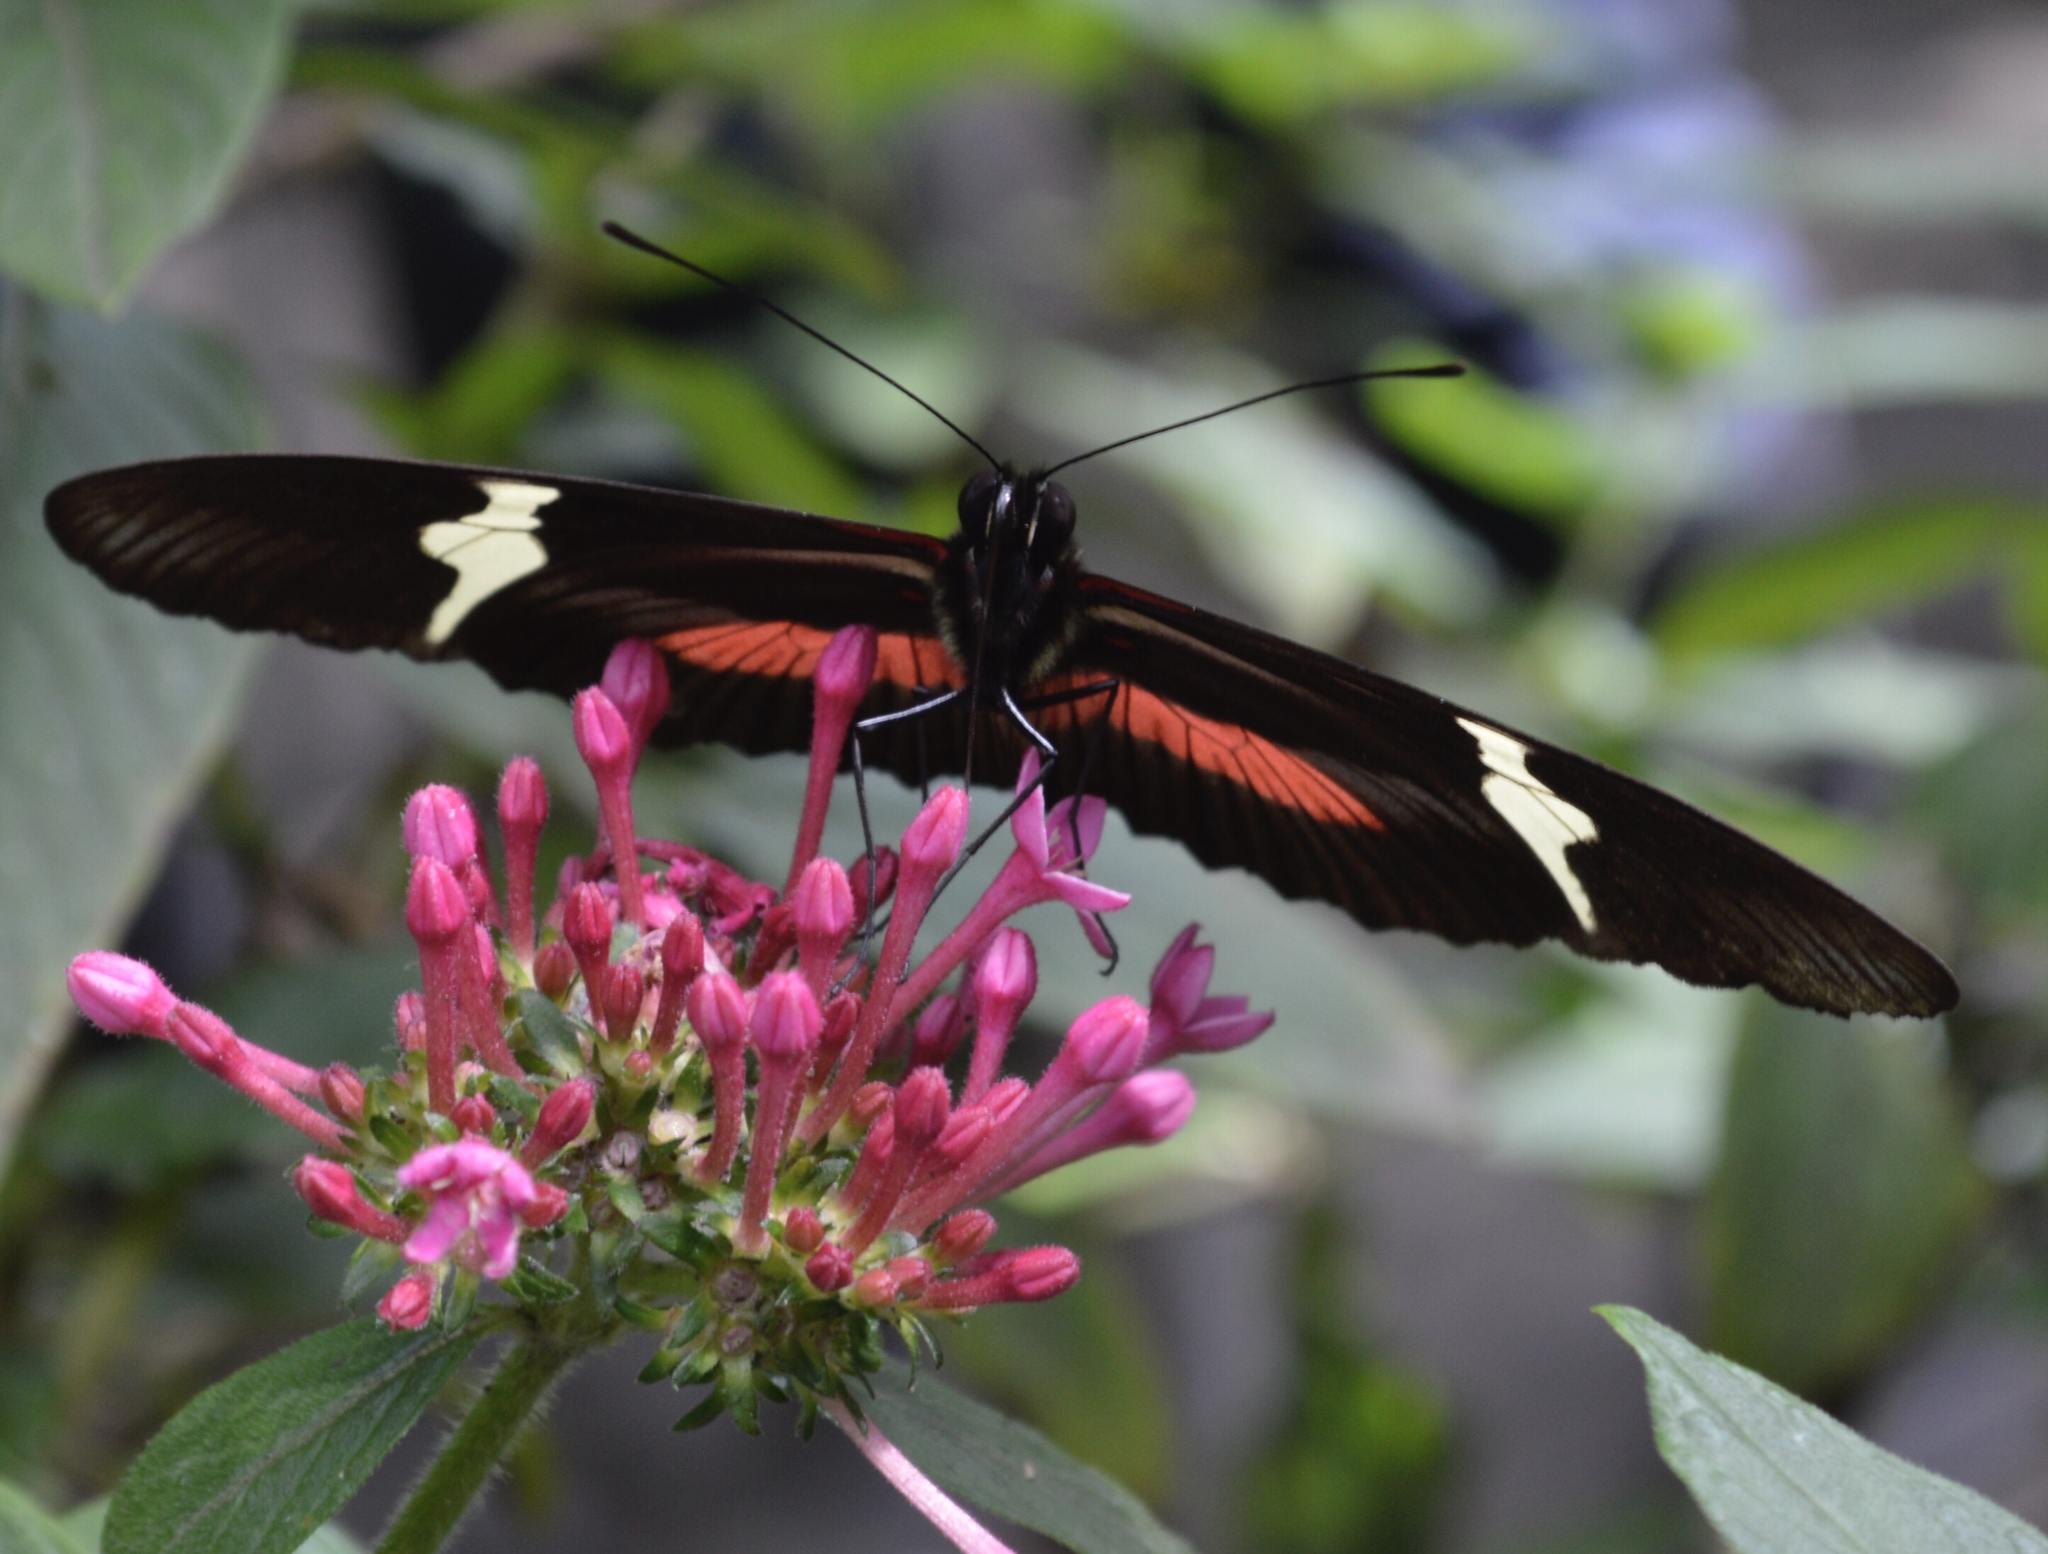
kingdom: Animalia
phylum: Arthropoda
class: Insecta
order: Lepidoptera
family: Nymphalidae
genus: Heliconius
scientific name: Heliconius clysonymus
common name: Clysonymus longwing
